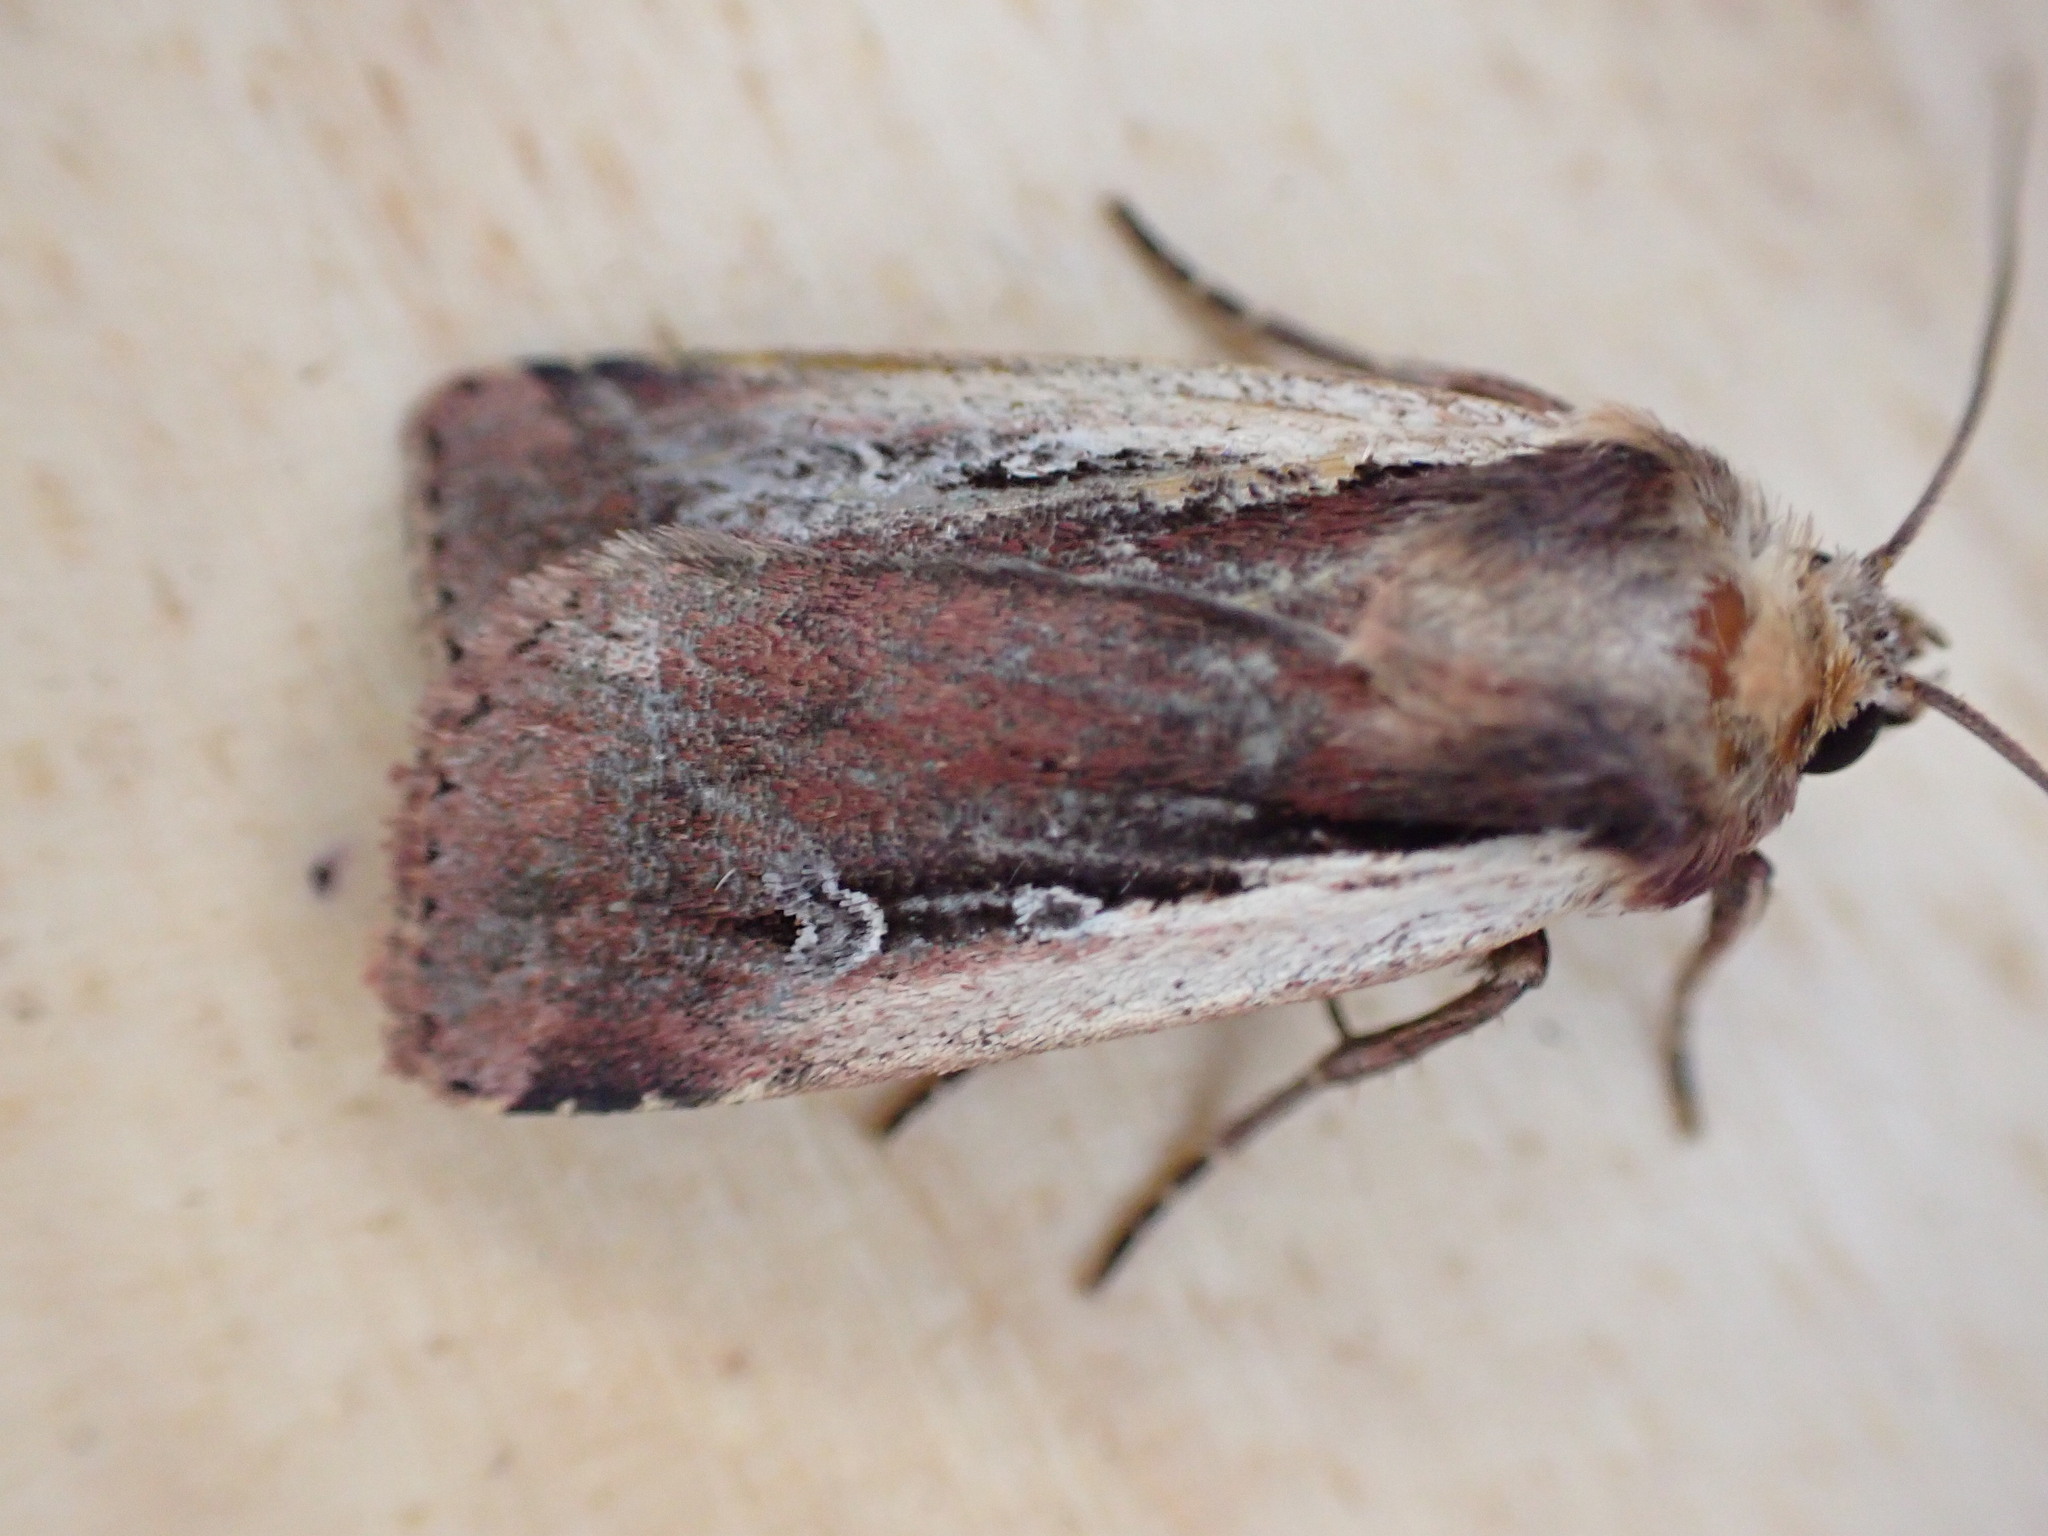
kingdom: Animalia
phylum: Arthropoda
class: Insecta
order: Lepidoptera
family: Noctuidae
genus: Ochropleura
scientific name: Ochropleura plecta
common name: Flame shoulder
